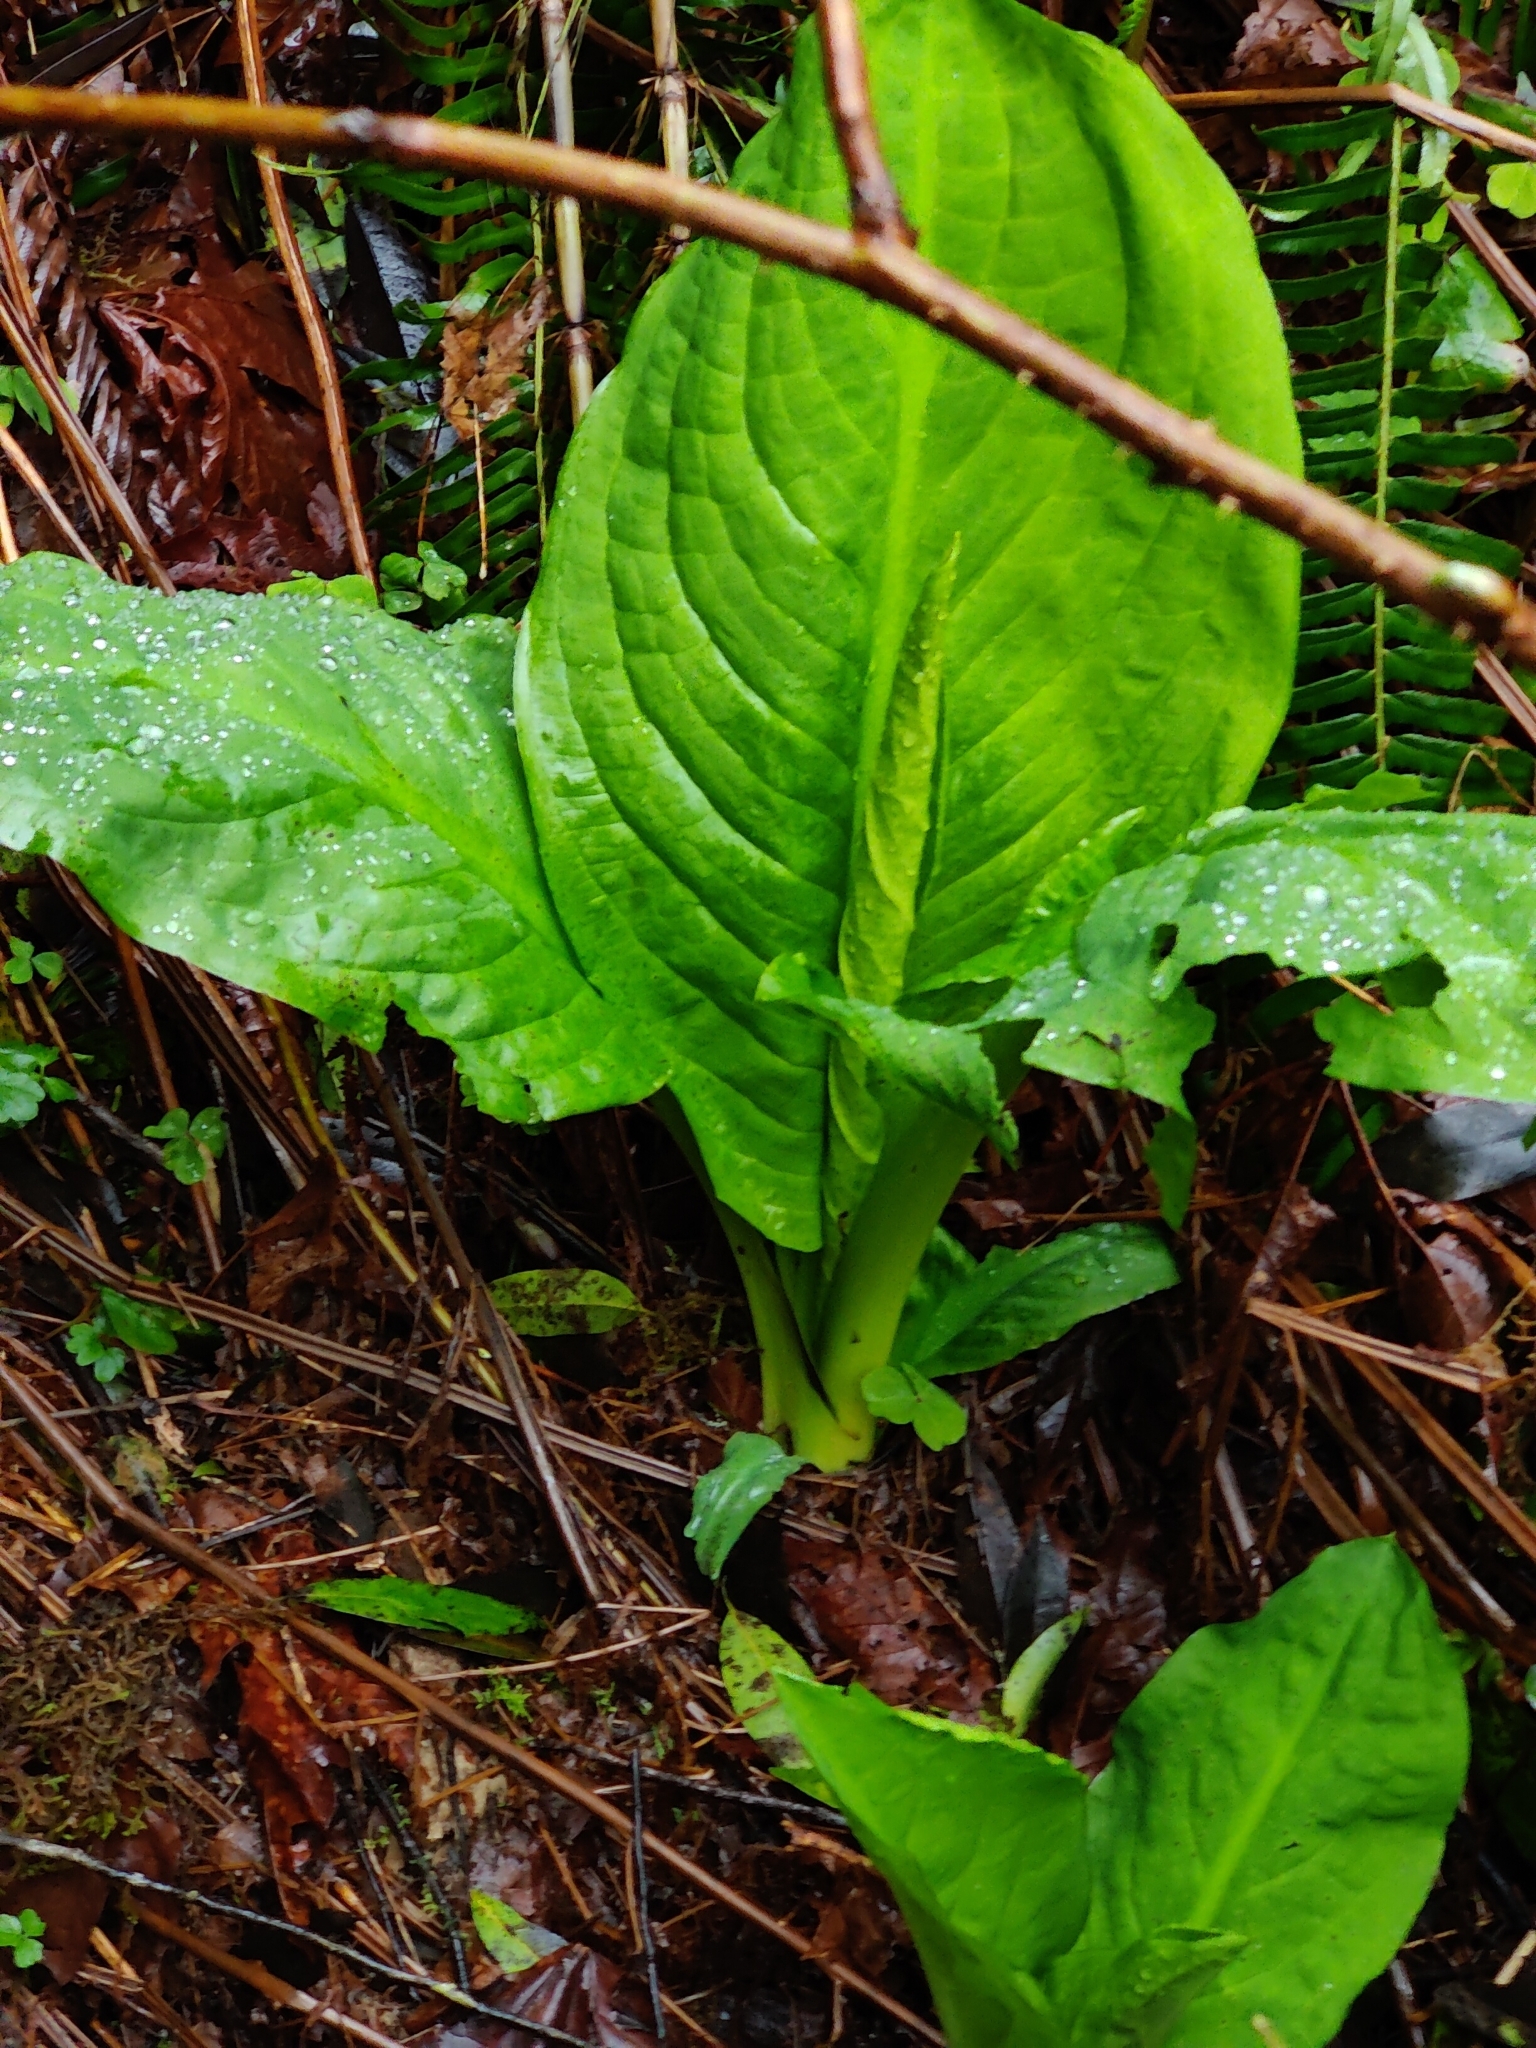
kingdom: Plantae
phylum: Tracheophyta
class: Liliopsida
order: Alismatales
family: Araceae
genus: Lysichiton
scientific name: Lysichiton americanus
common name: American skunk cabbage
